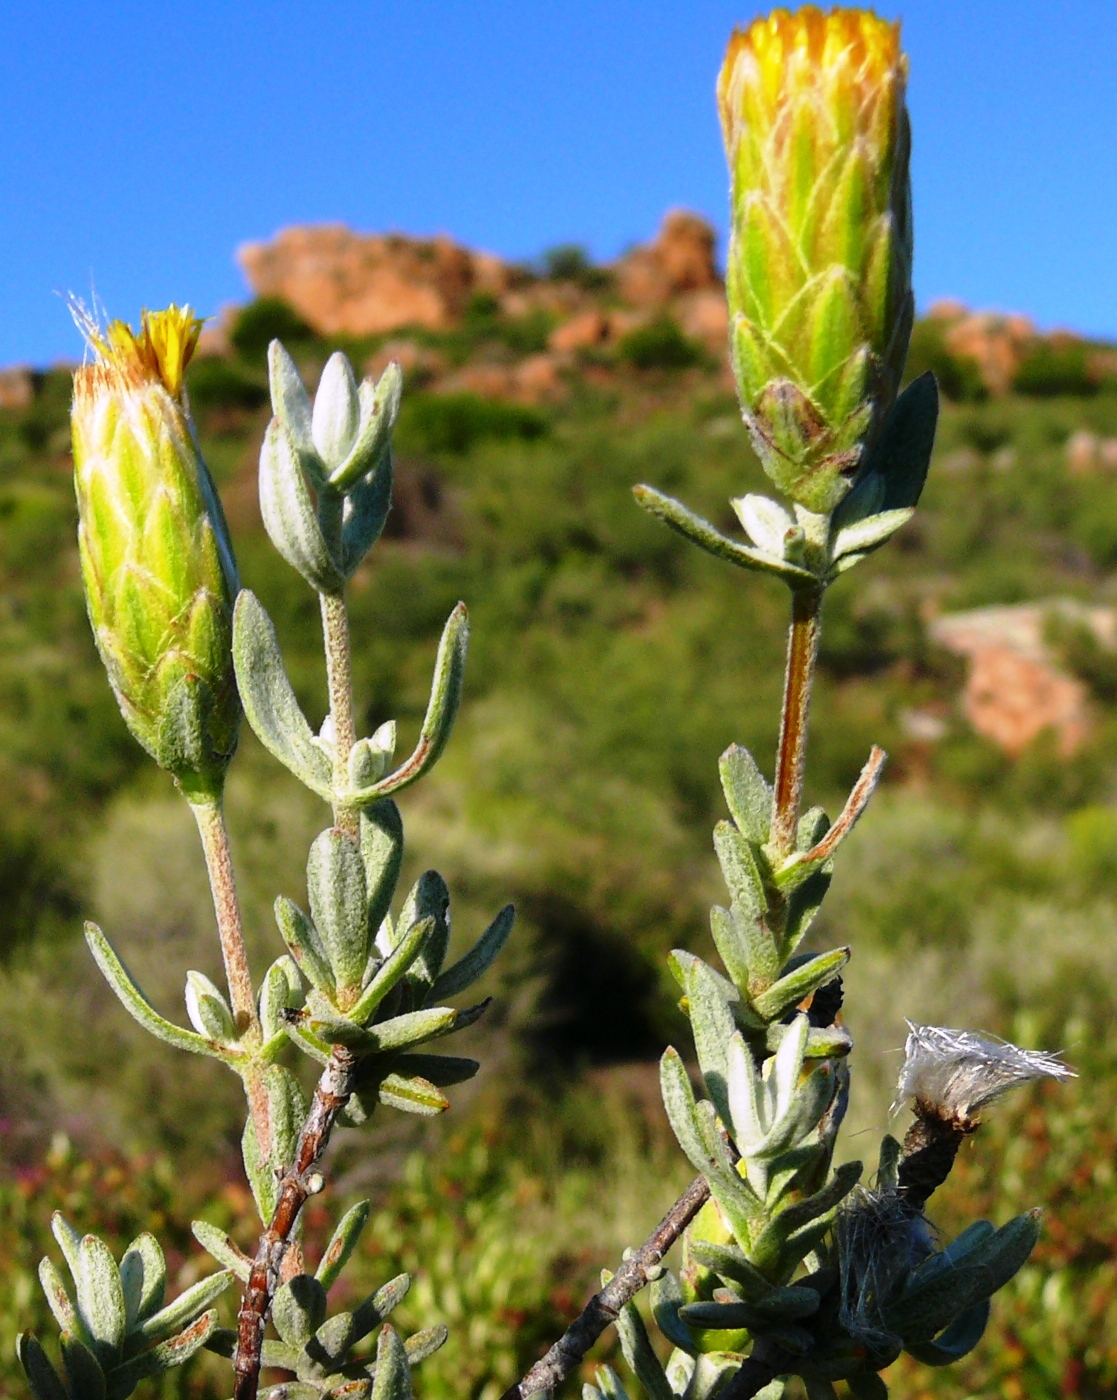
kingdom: Plantae
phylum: Tracheophyta
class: Magnoliopsida
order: Asterales
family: Asteraceae
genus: Pteronia
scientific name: Pteronia cinerea
